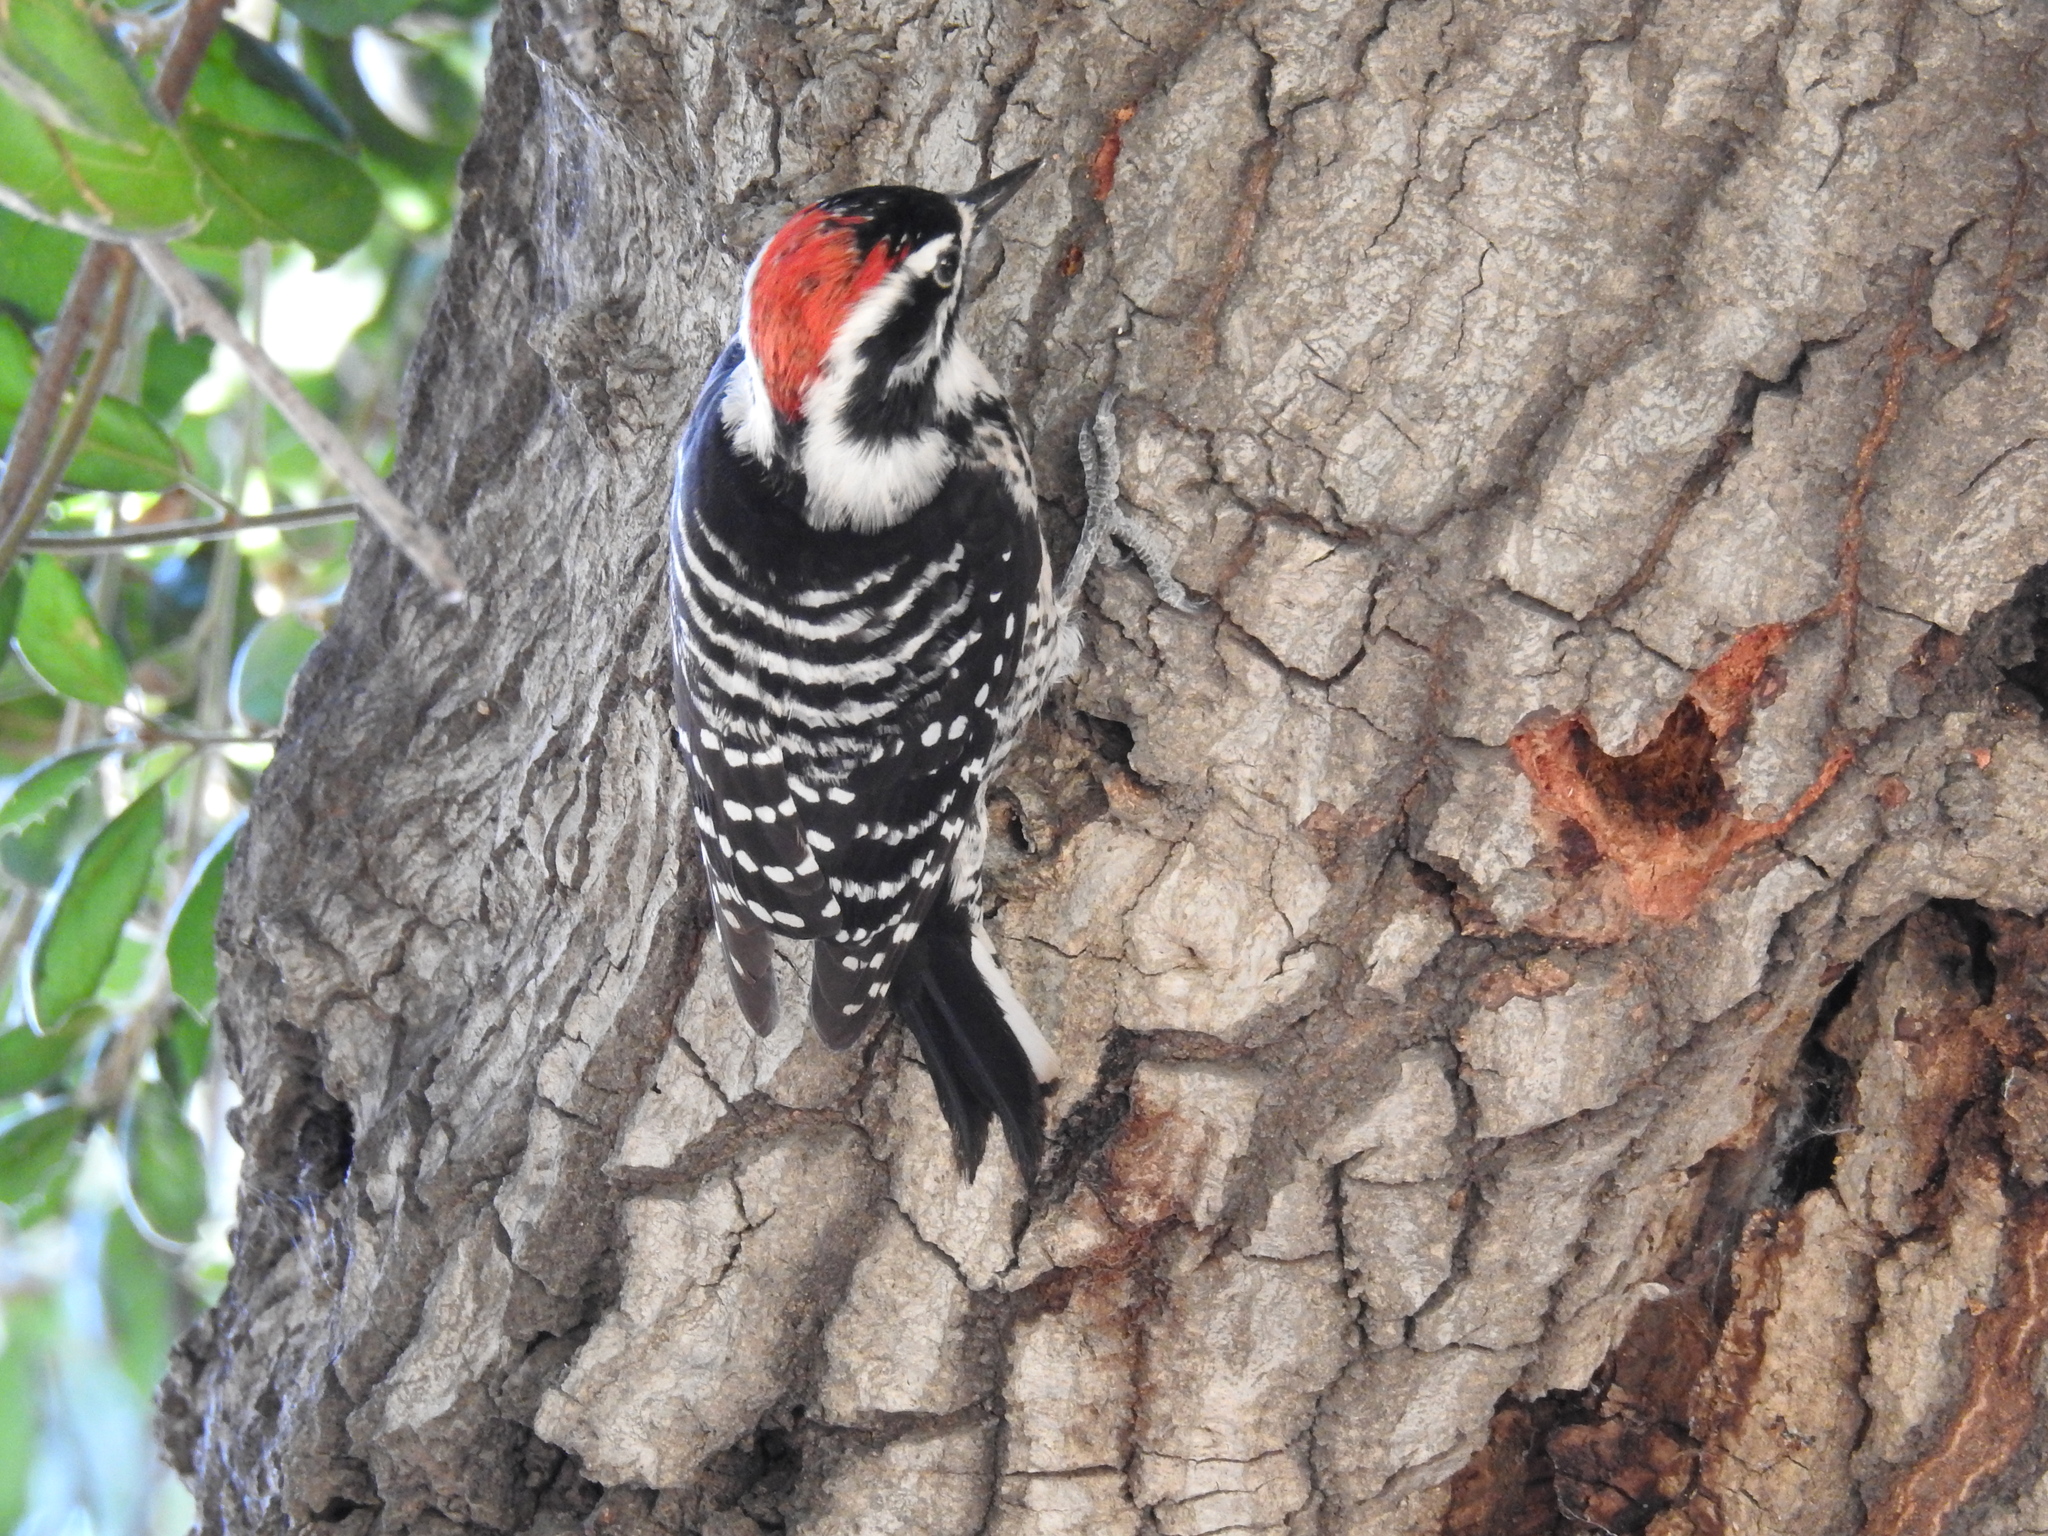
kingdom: Animalia
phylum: Chordata
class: Aves
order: Piciformes
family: Picidae
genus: Dryobates
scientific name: Dryobates nuttallii
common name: Nuttall's woodpecker
